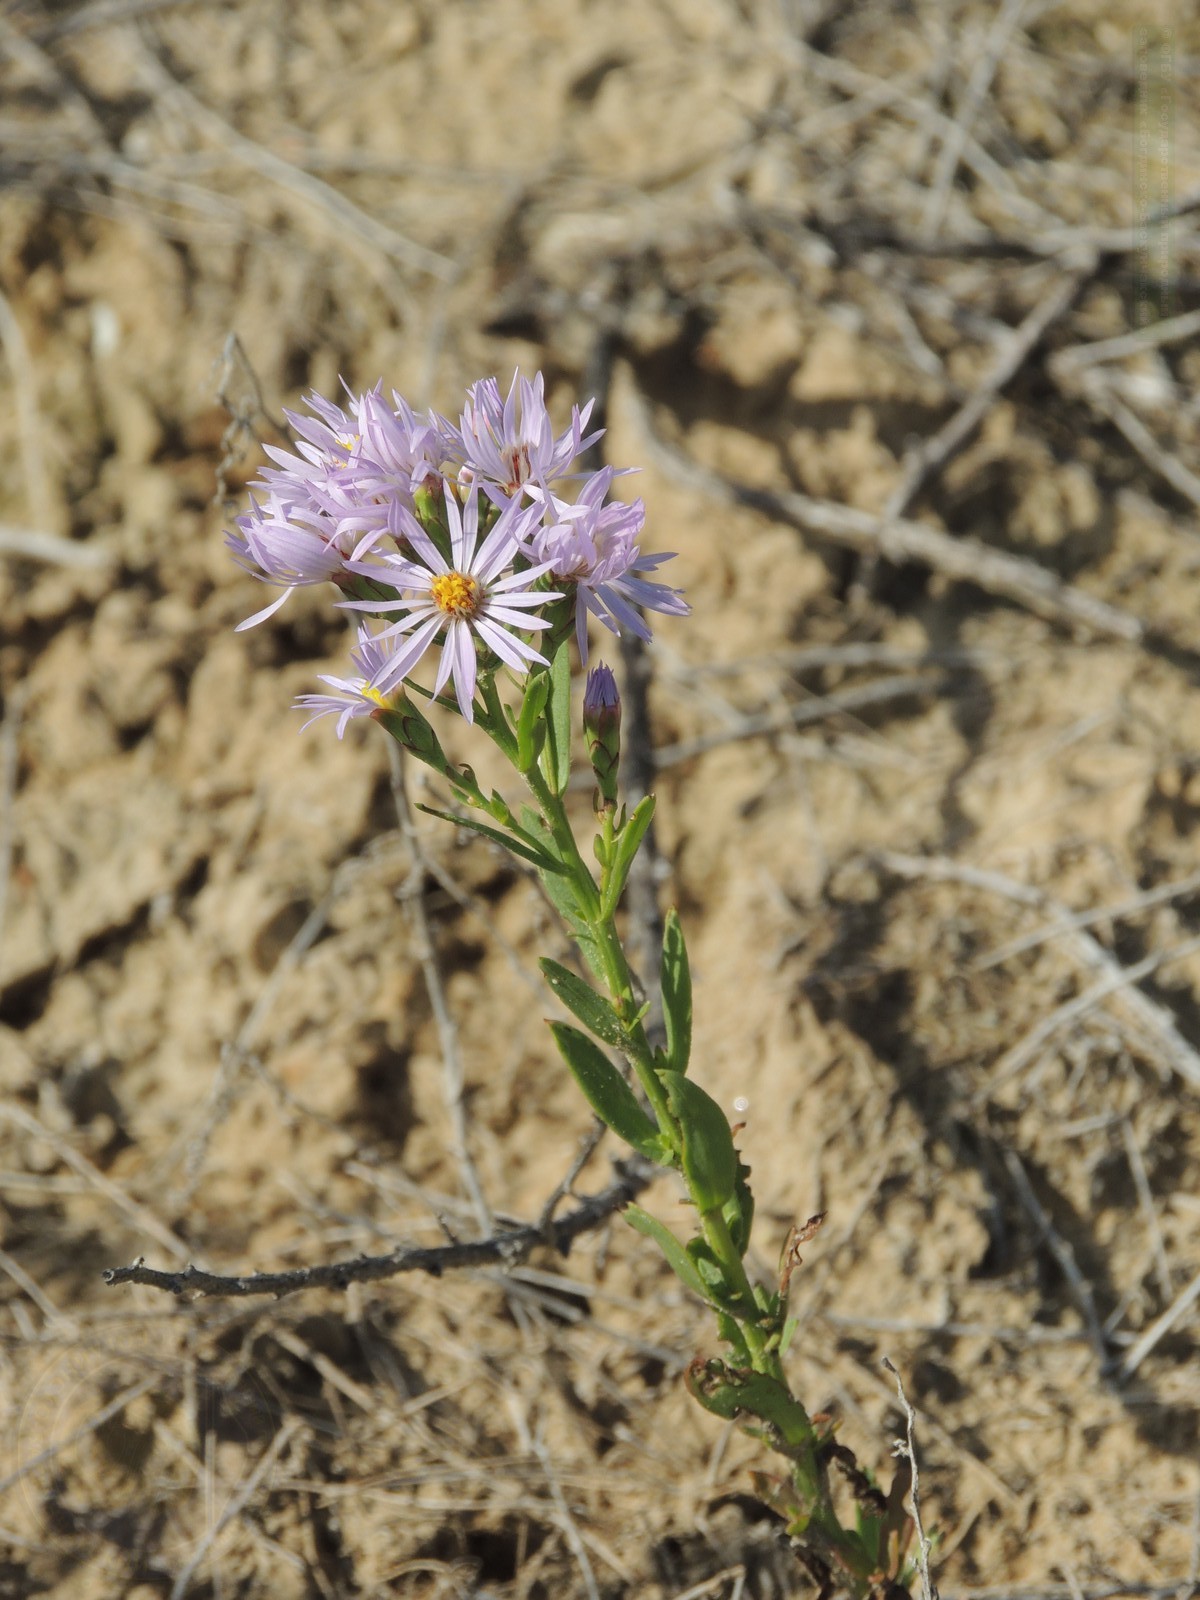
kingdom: Plantae
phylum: Tracheophyta
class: Magnoliopsida
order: Asterales
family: Asteraceae
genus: Tripolium
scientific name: Tripolium pannonicum
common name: Sea aster
